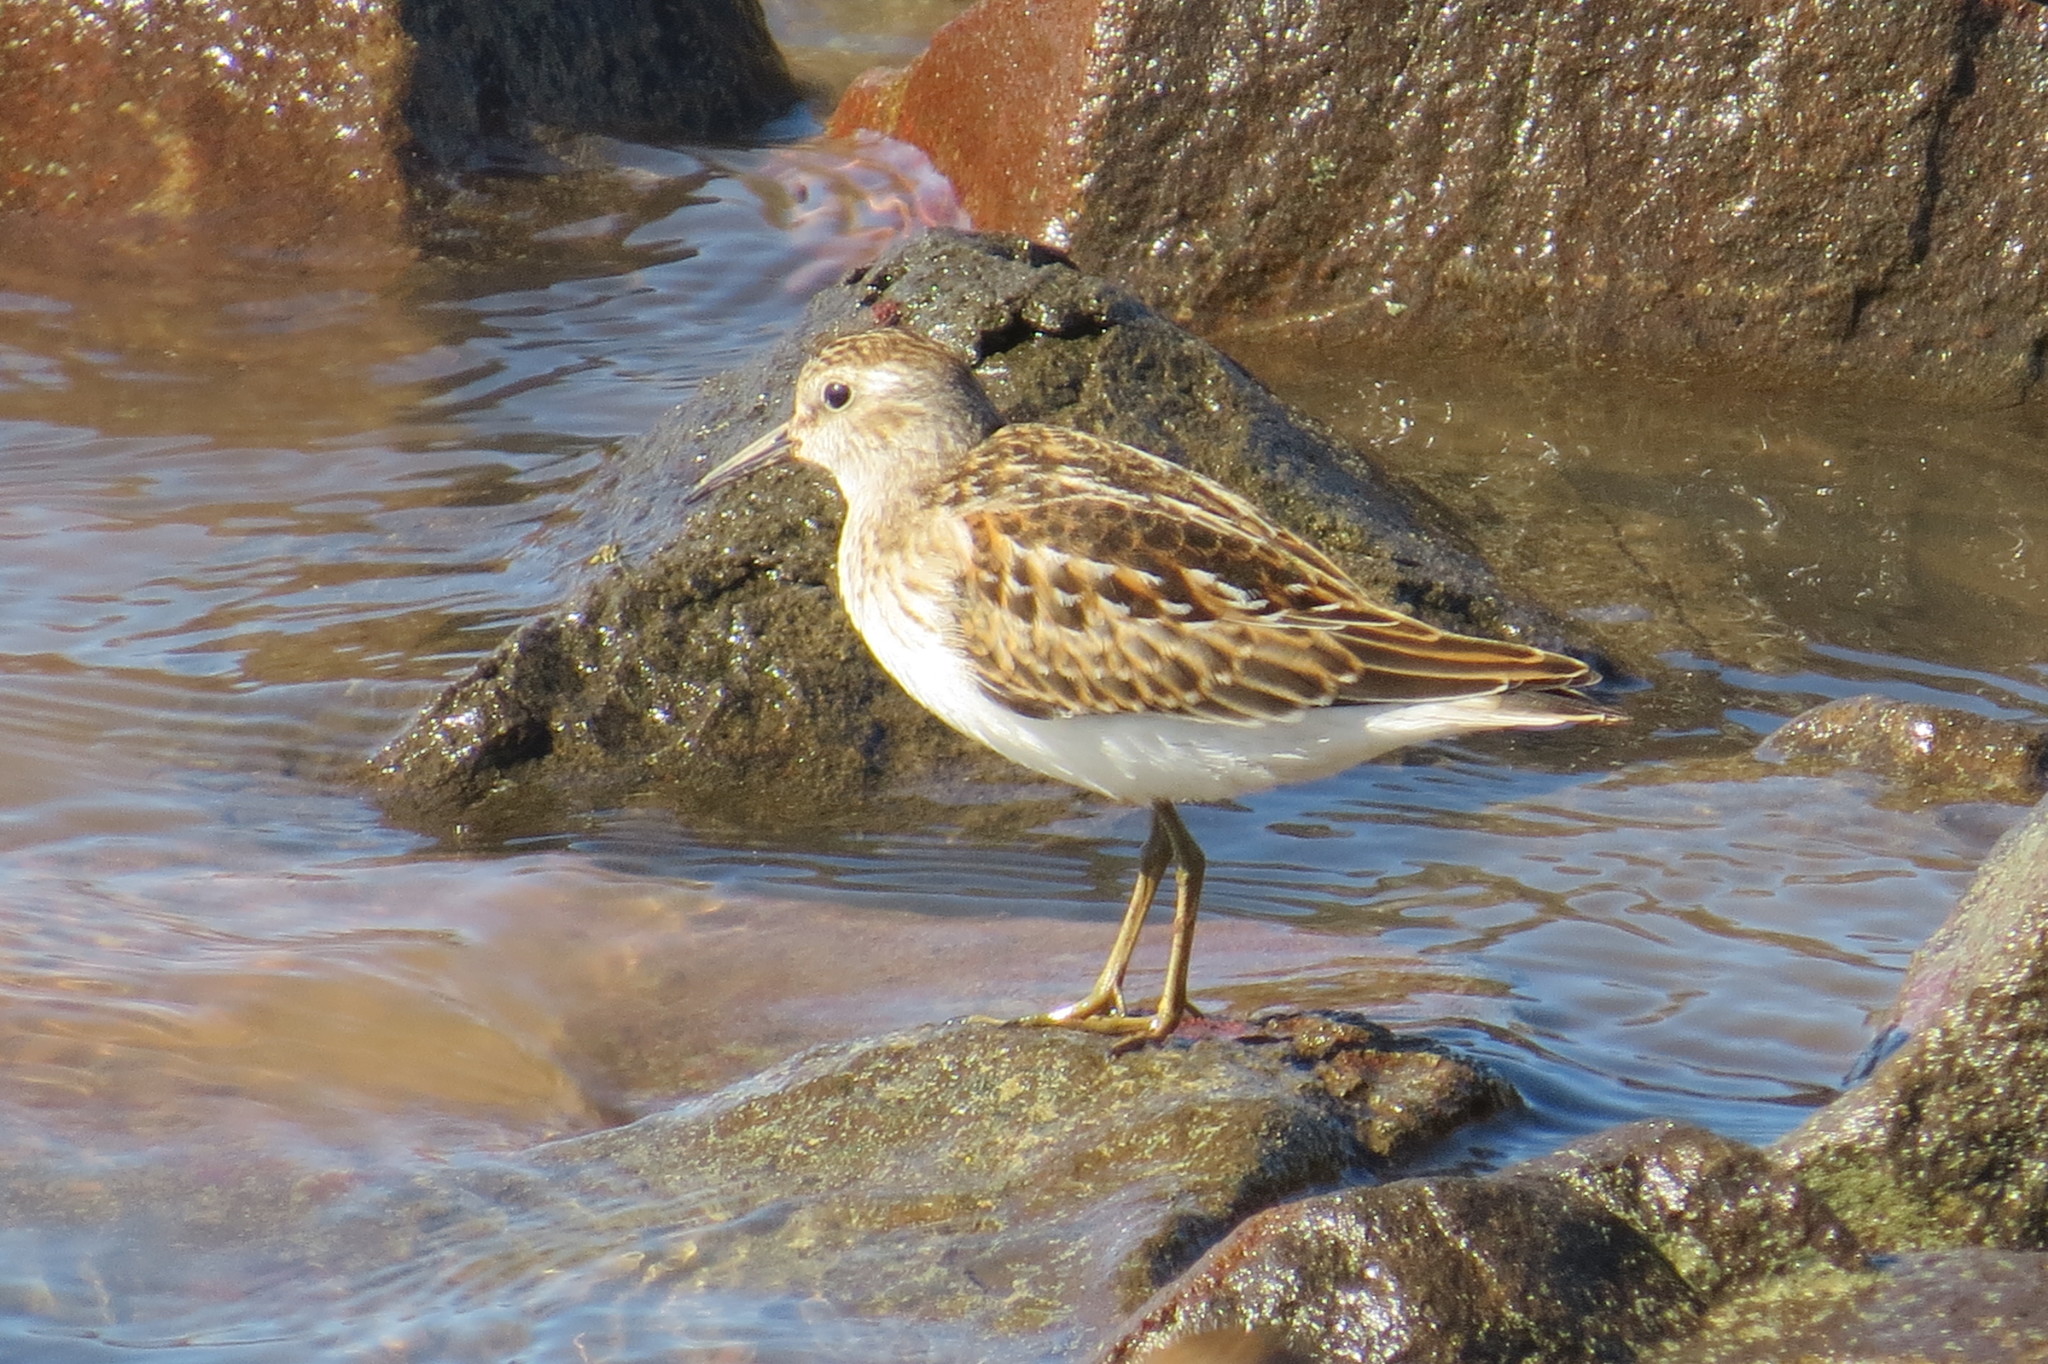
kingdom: Animalia
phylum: Chordata
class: Aves
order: Charadriiformes
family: Scolopacidae
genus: Calidris
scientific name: Calidris minutilla
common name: Least sandpiper
